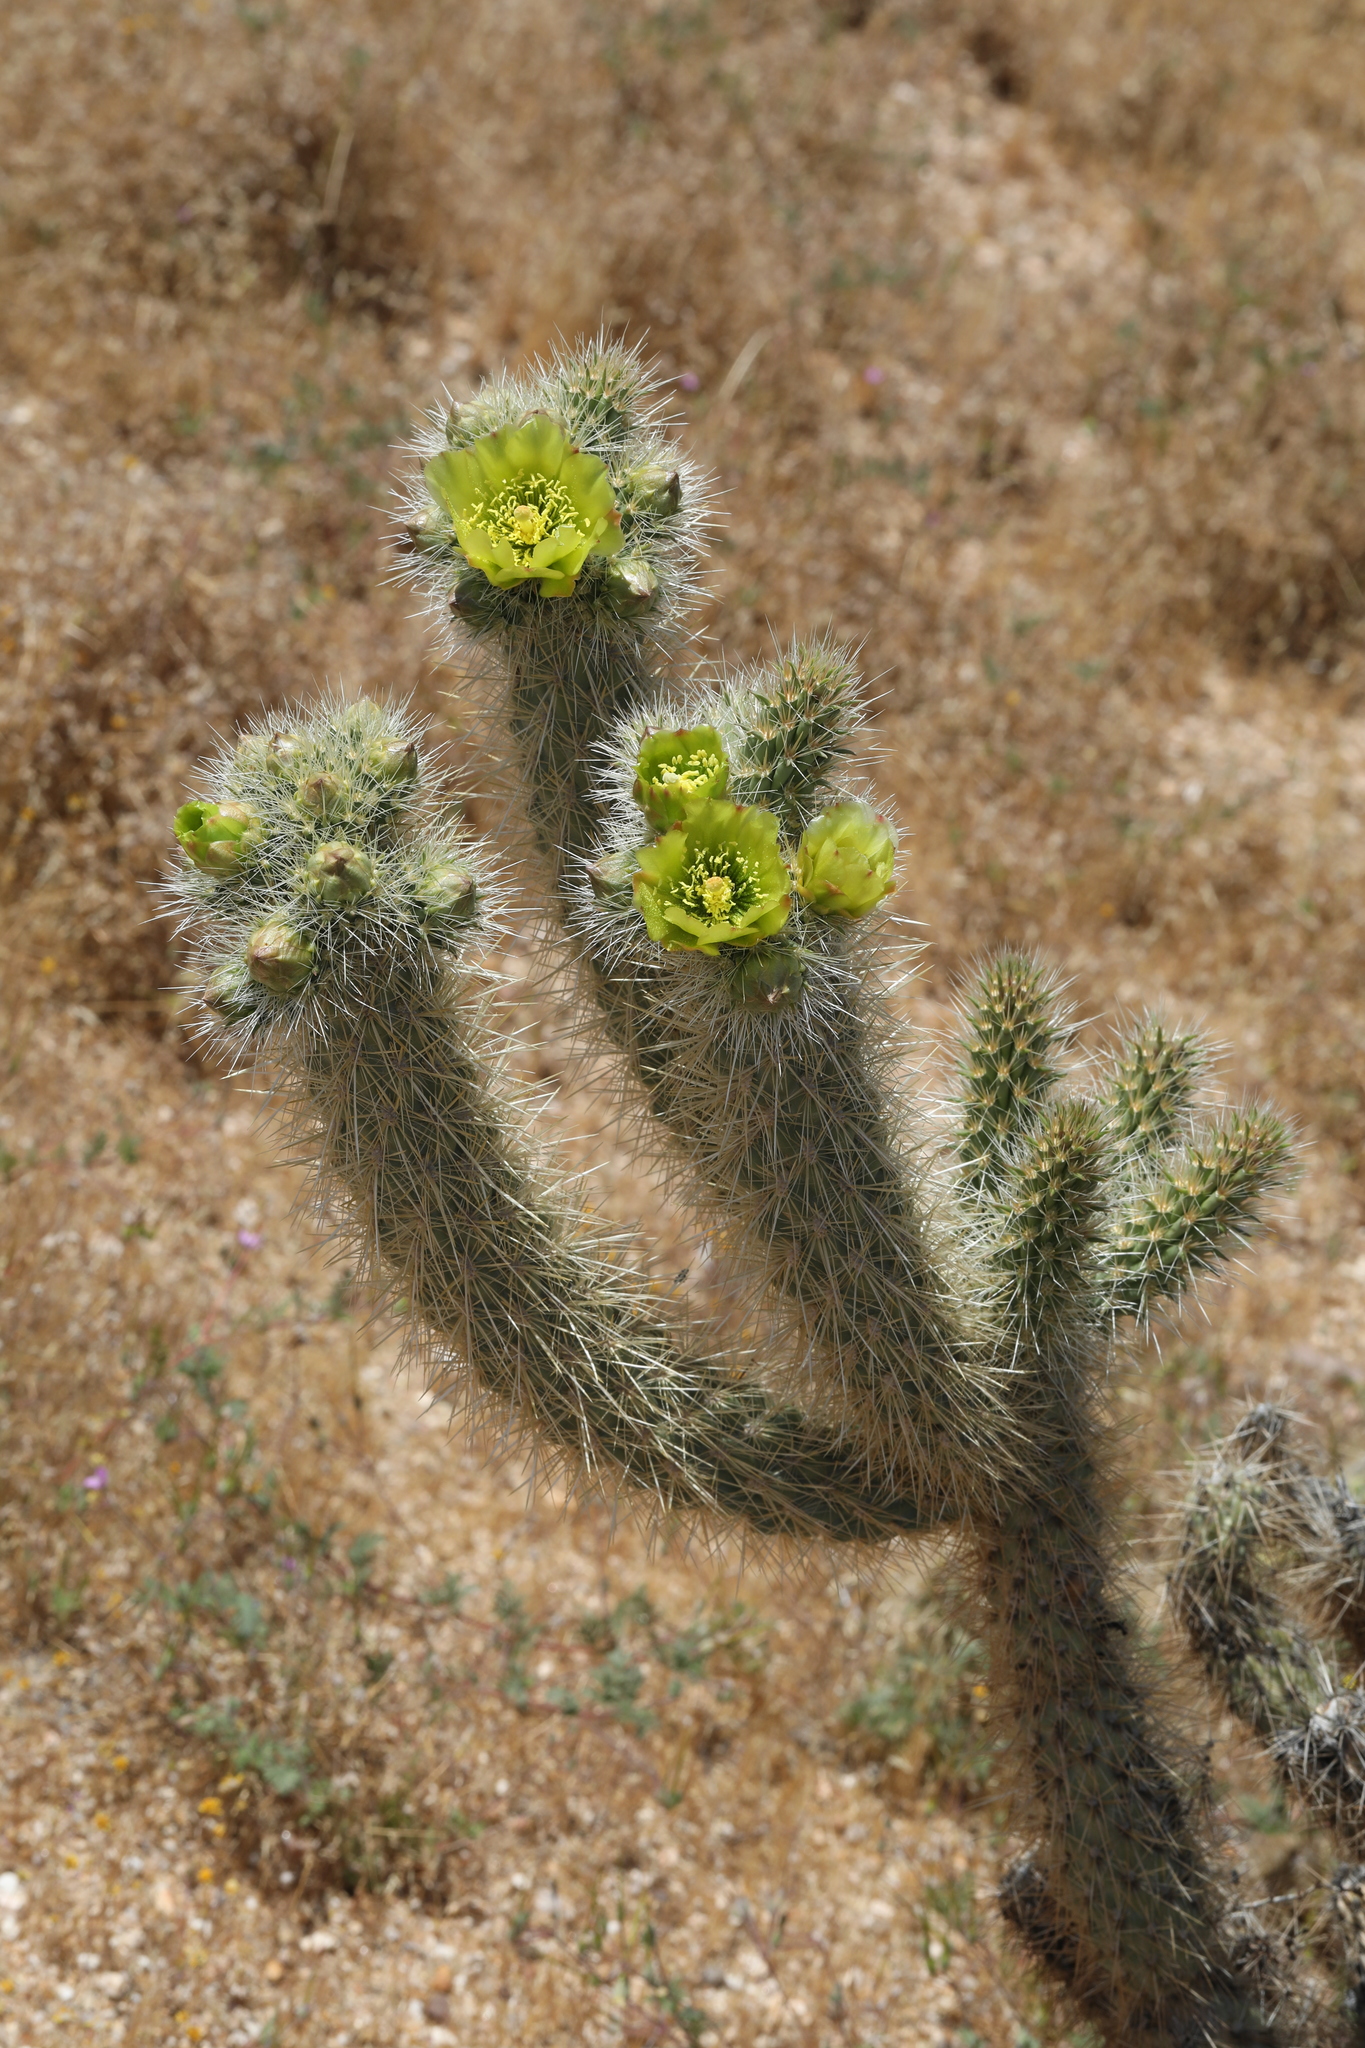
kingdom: Plantae
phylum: Tracheophyta
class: Magnoliopsida
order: Caryophyllales
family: Cactaceae
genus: Cylindropuntia
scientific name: Cylindropuntia ganderi
